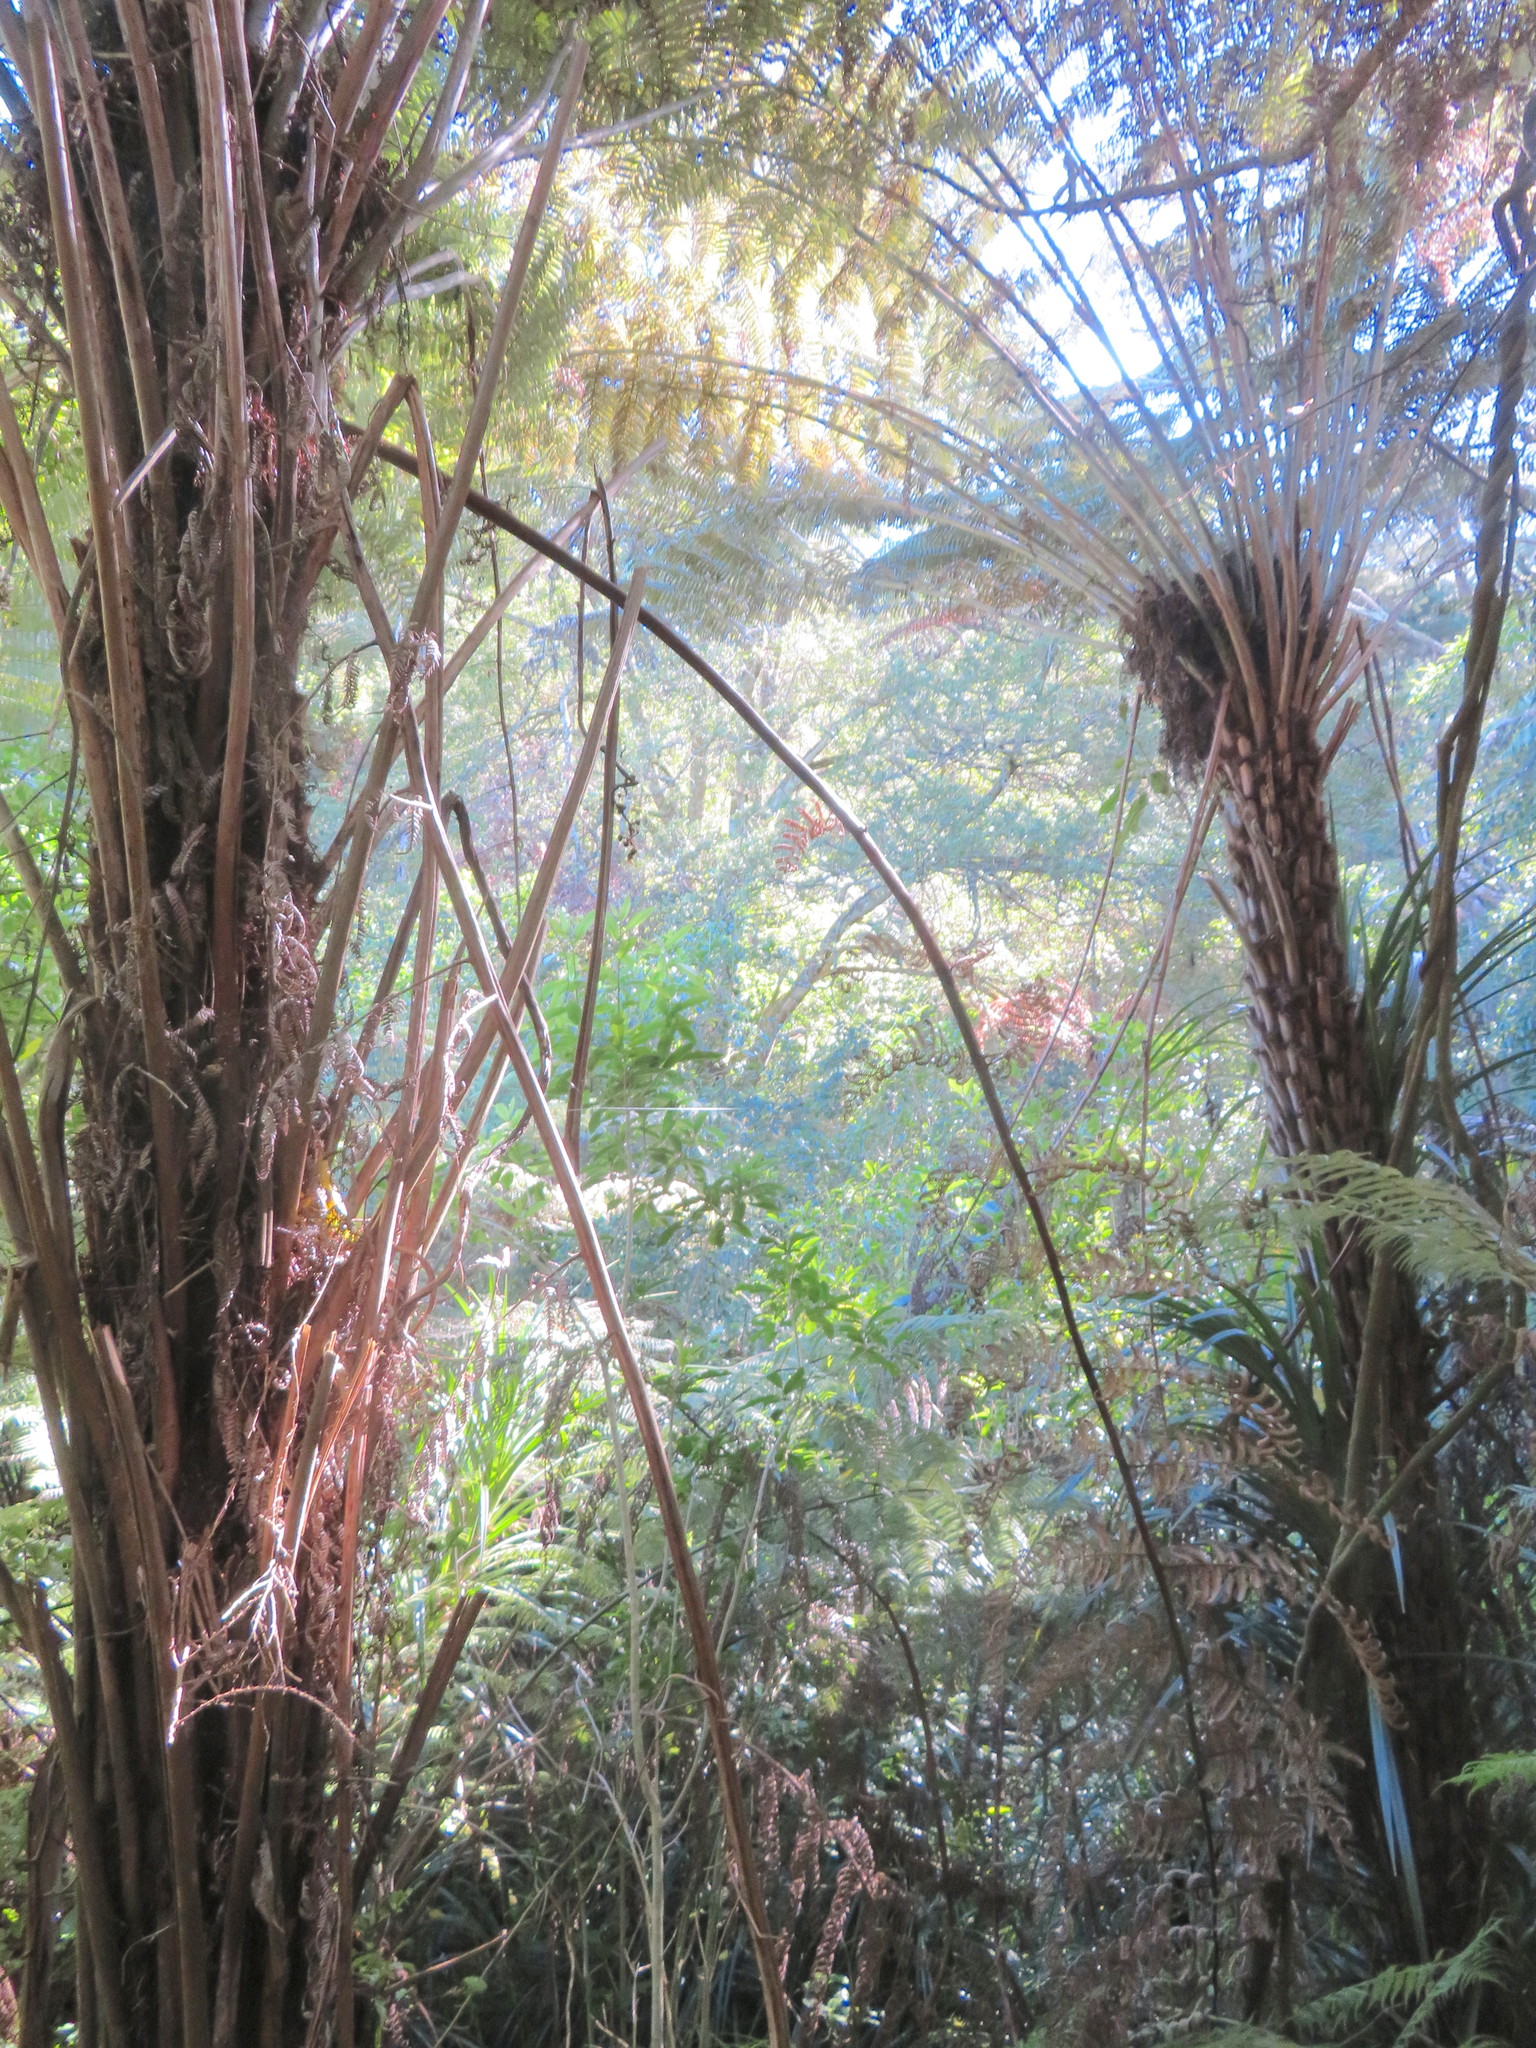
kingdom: Plantae
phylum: Tracheophyta
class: Polypodiopsida
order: Cyatheales
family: Cyatheaceae
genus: Alsophila
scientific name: Alsophila dealbata
